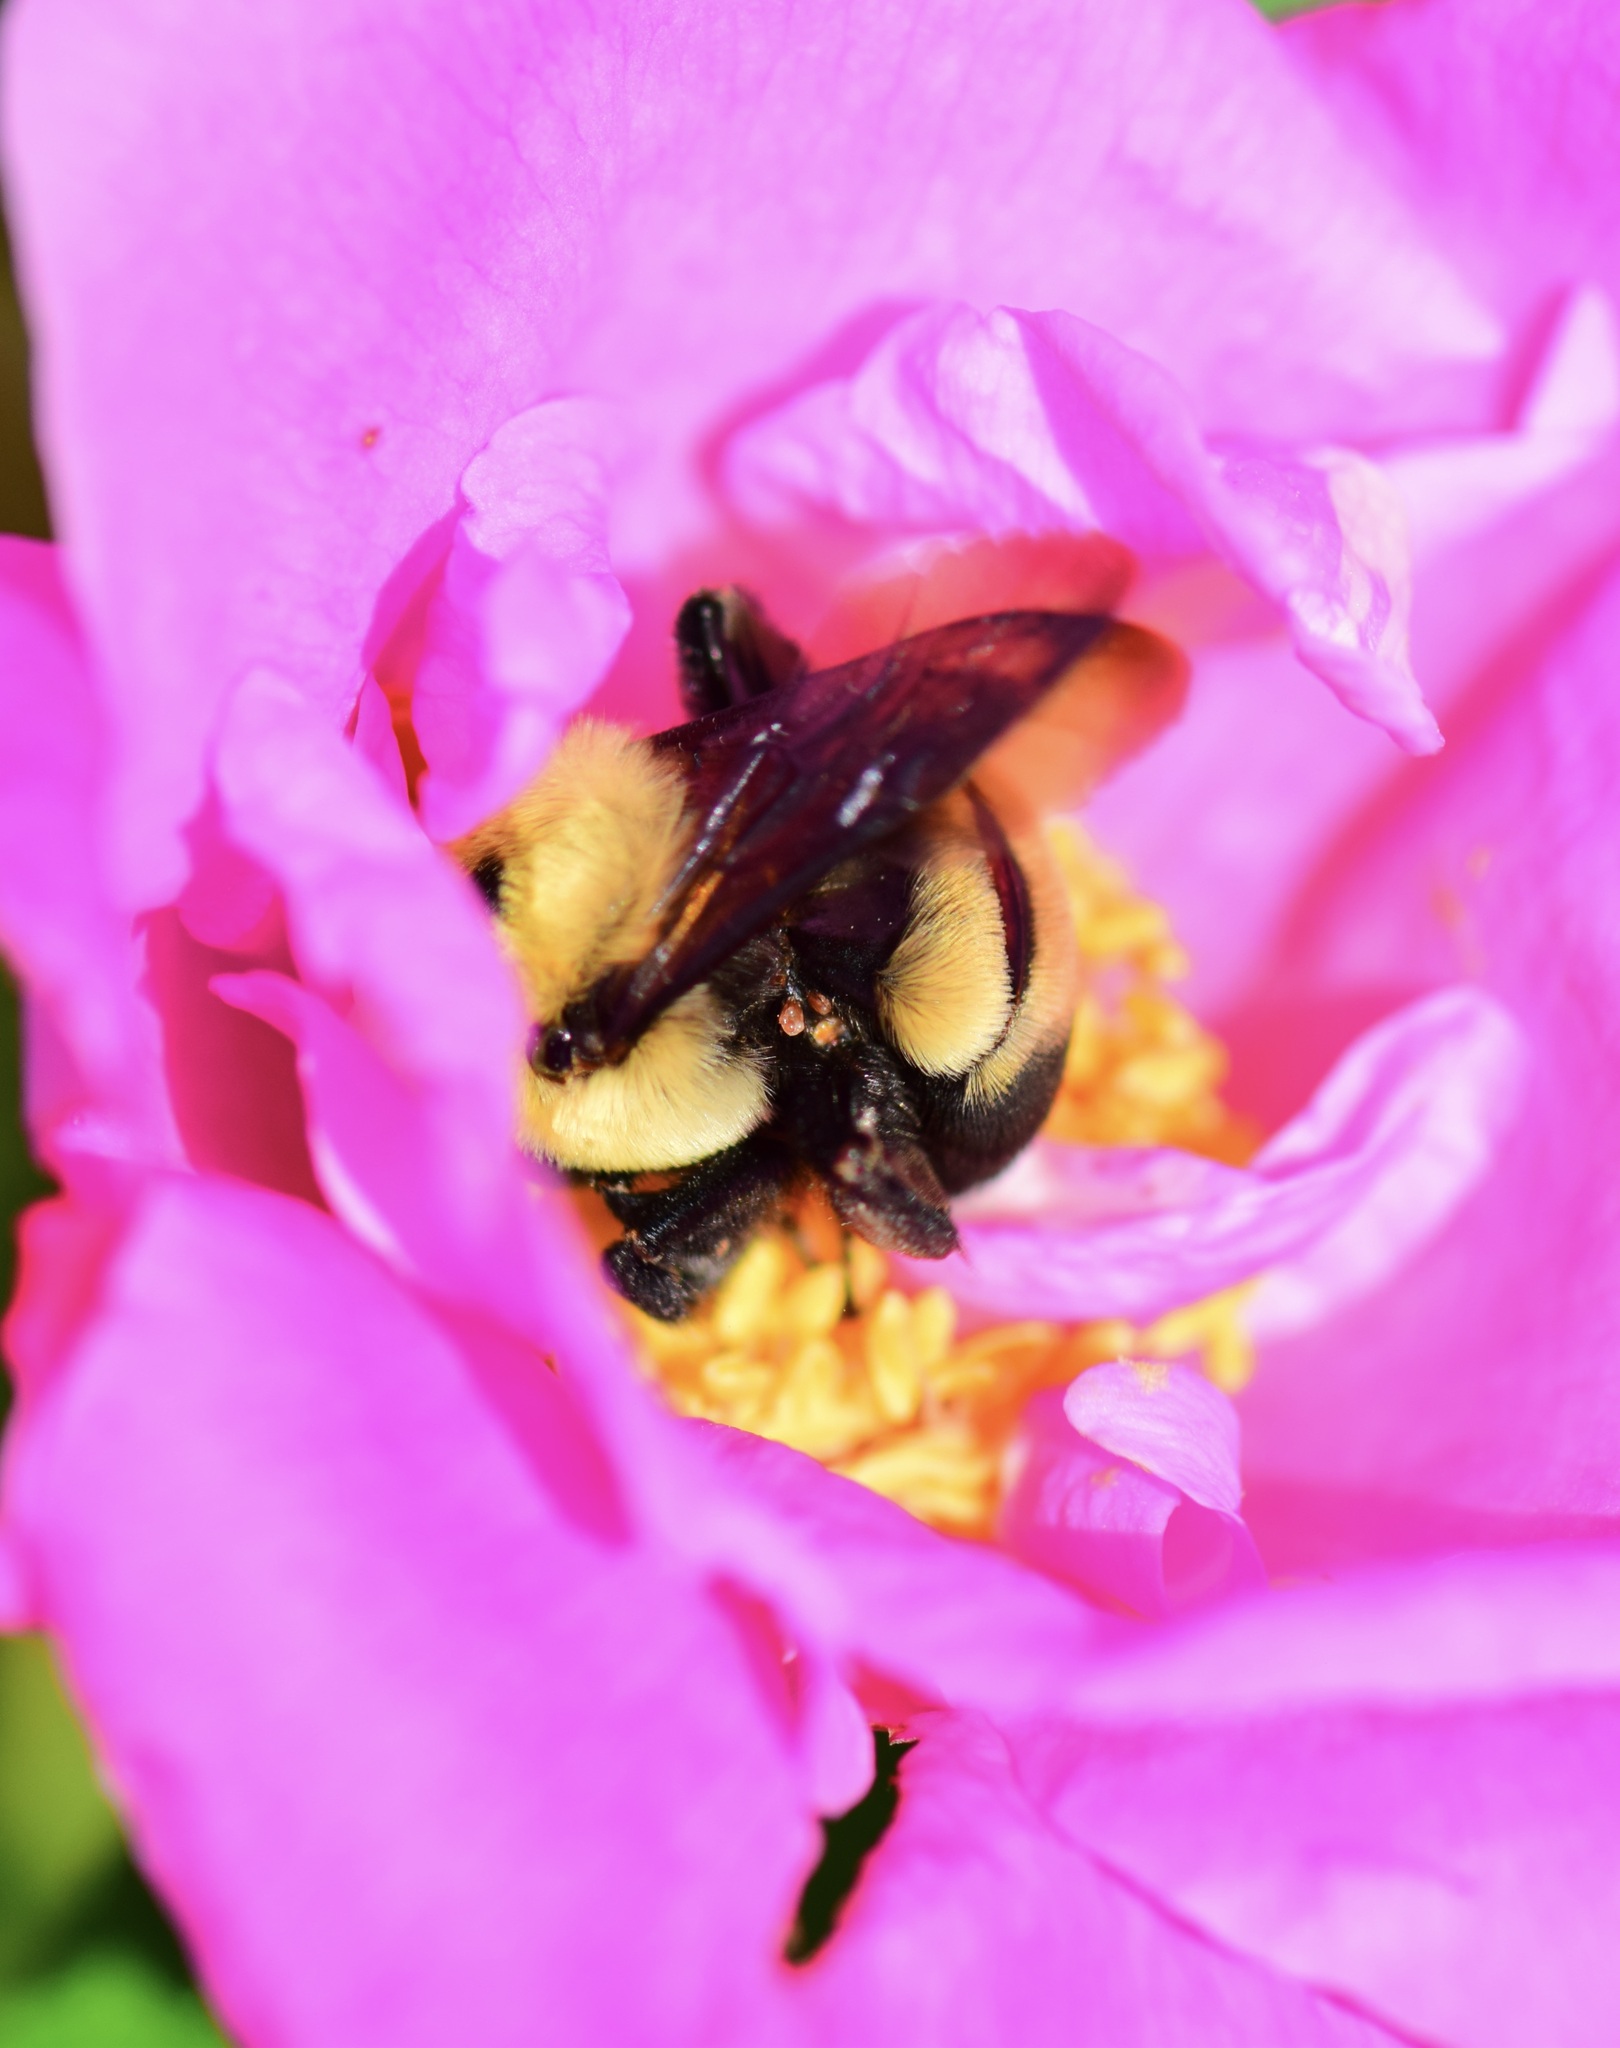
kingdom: Animalia
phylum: Arthropoda
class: Insecta
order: Hymenoptera
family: Apidae
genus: Bombus
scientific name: Bombus griseocollis
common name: Brown-belted bumble bee
